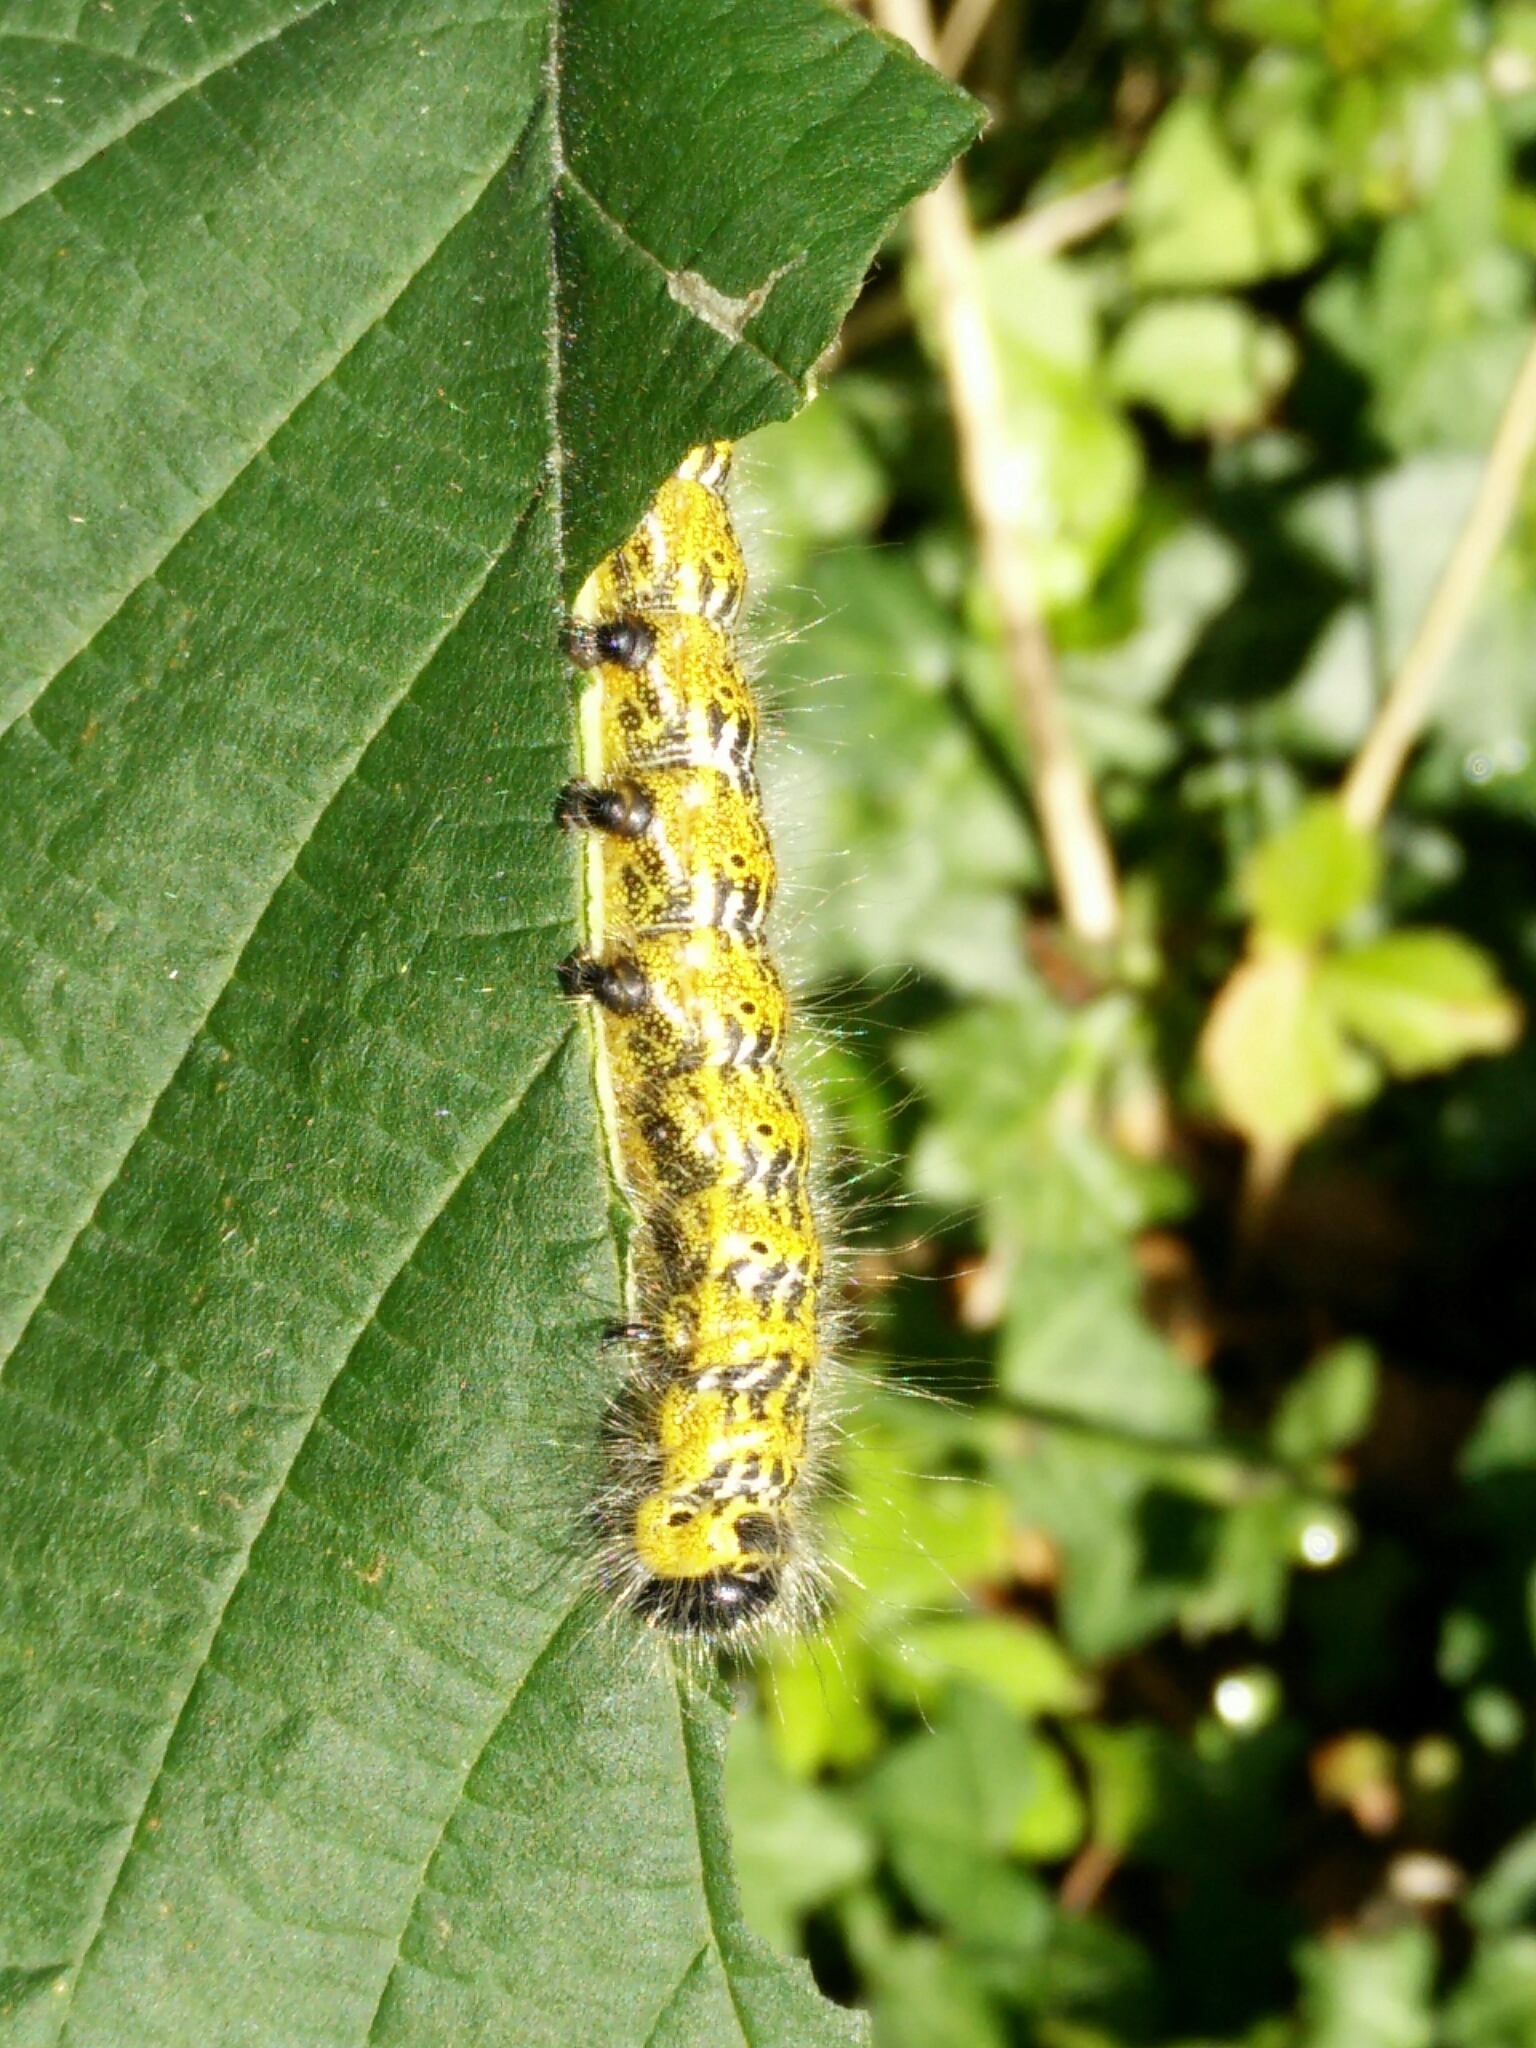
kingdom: Animalia
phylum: Arthropoda
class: Insecta
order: Lepidoptera
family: Notodontidae
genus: Phalera
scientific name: Phalera bucephala
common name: Buff-tip
